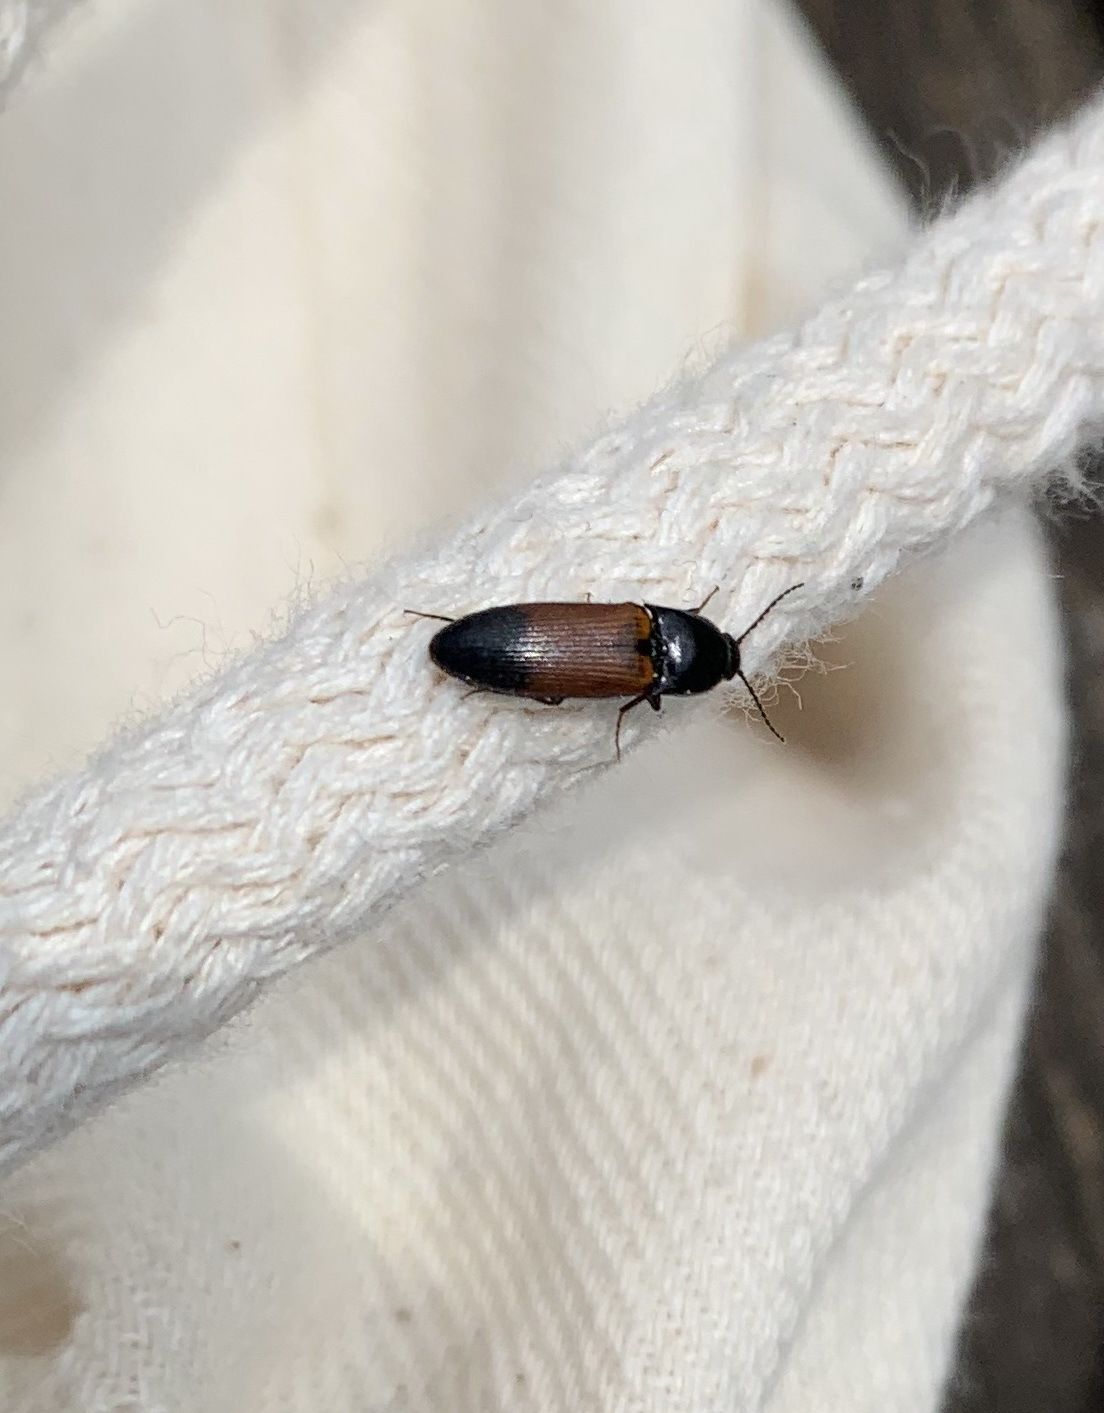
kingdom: Animalia
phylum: Arthropoda
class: Insecta
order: Coleoptera
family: Elateridae
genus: Ampedus
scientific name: Ampedus balteatus
